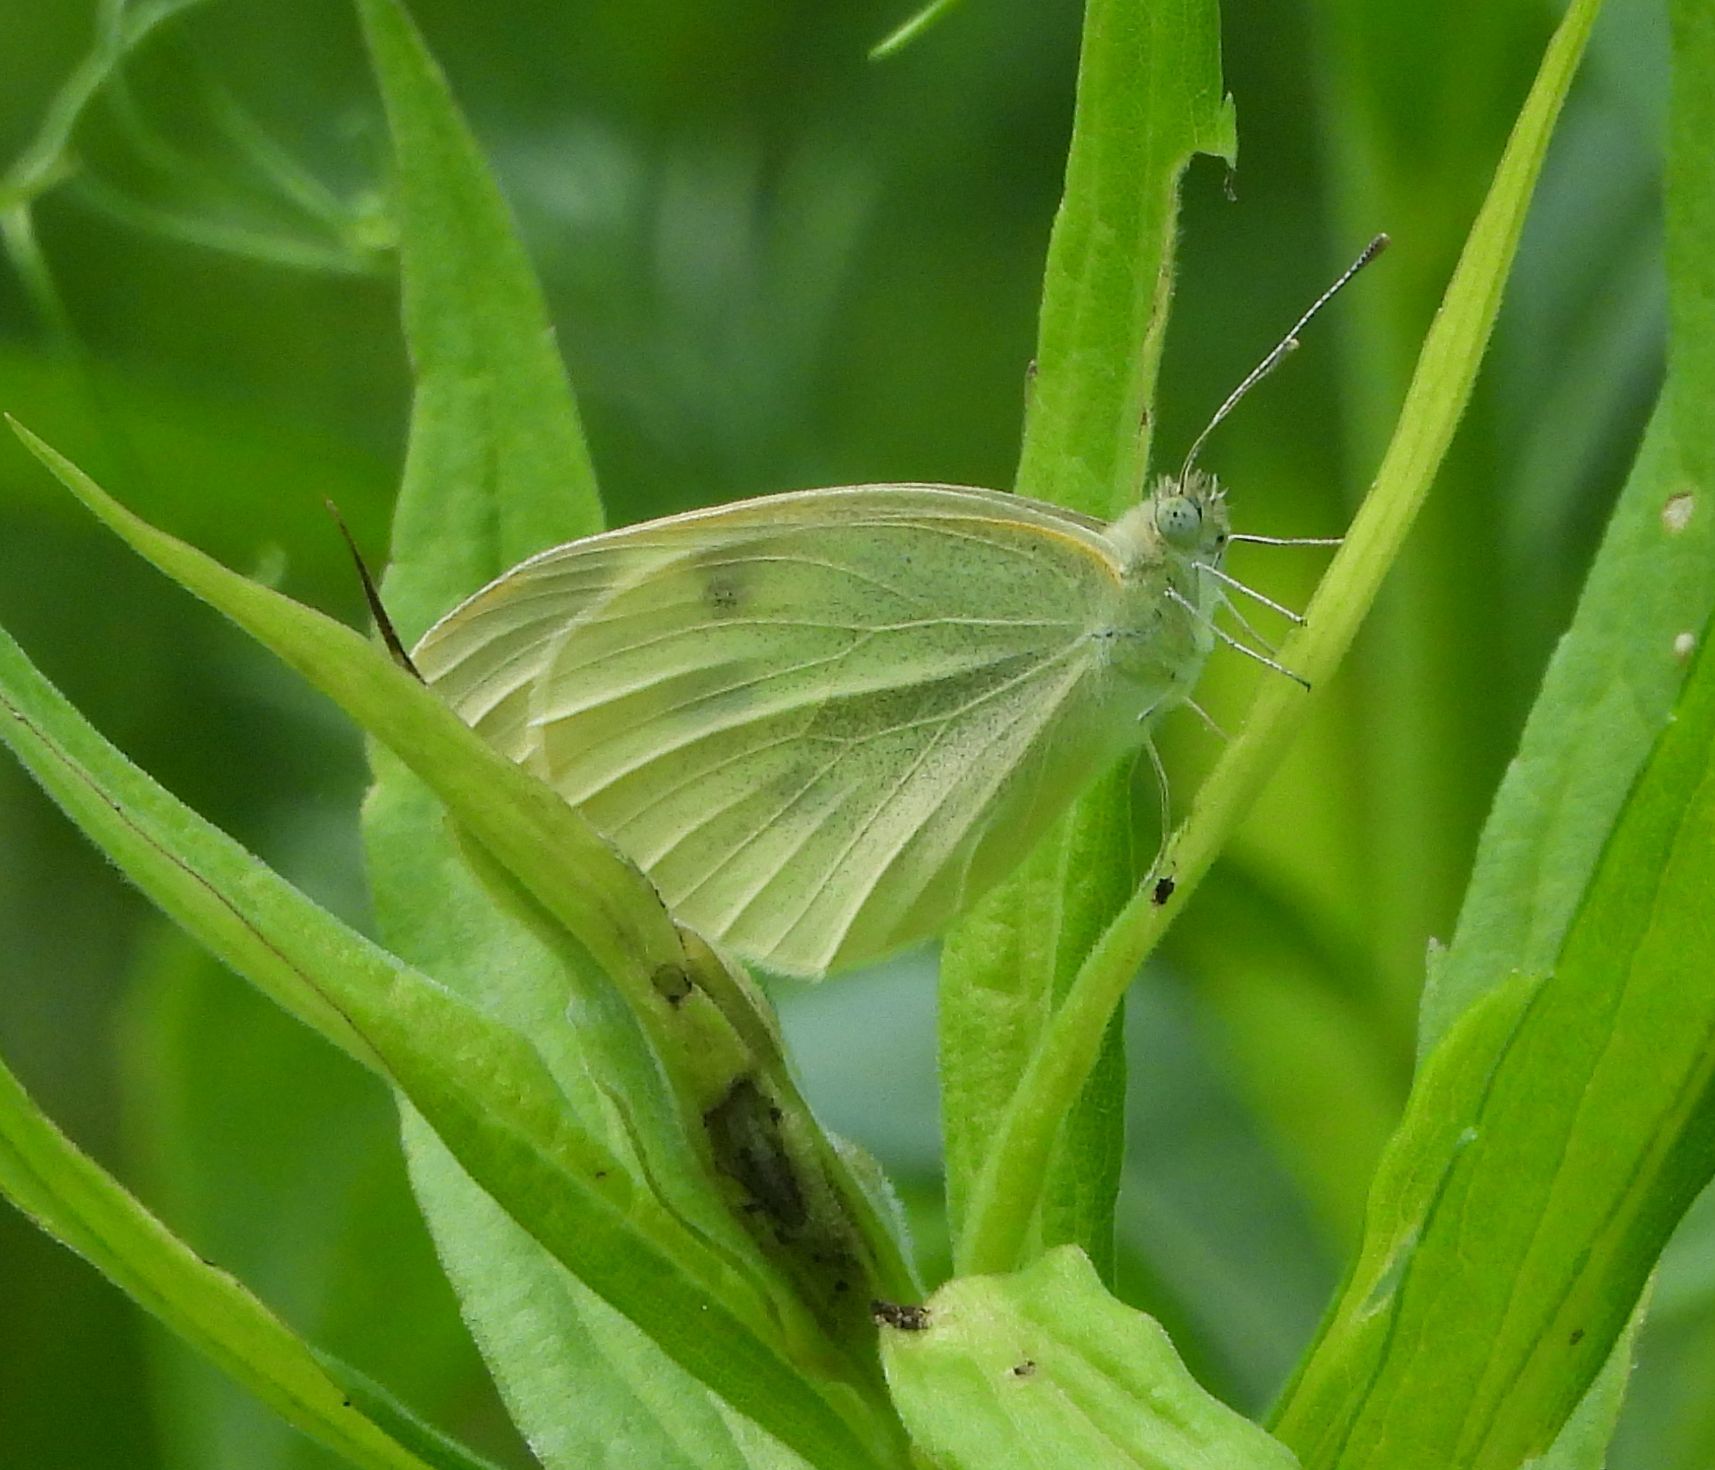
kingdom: Animalia
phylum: Arthropoda
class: Insecta
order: Lepidoptera
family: Pieridae
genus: Pieris
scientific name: Pieris rapae
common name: Small white
